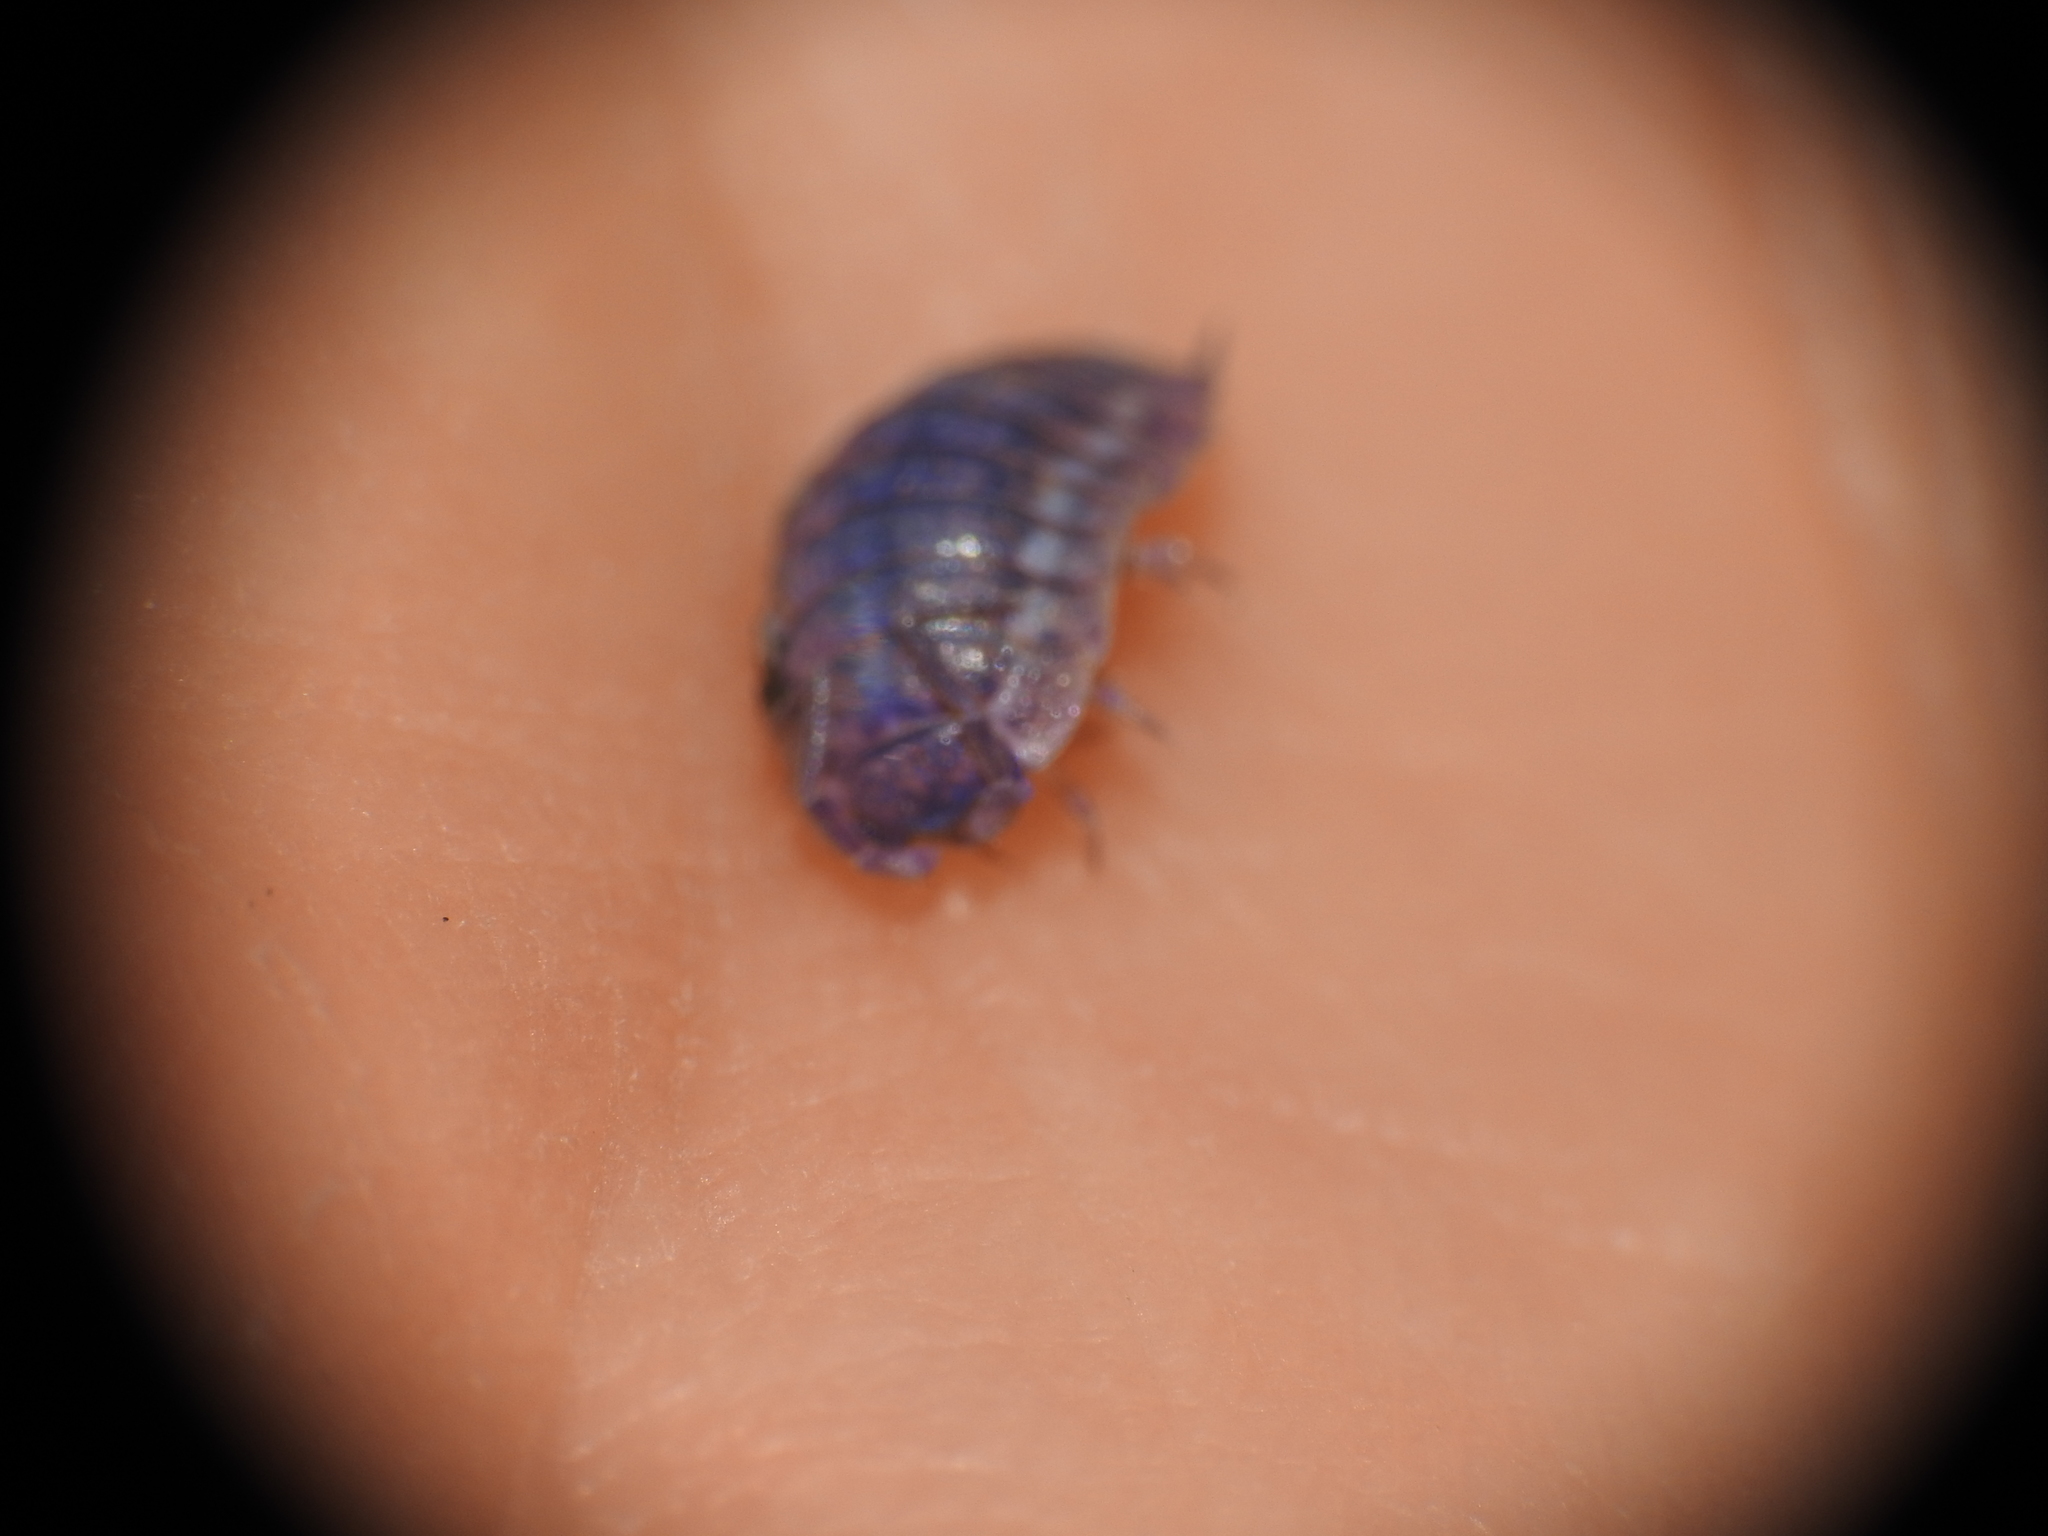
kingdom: Viruses
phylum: Nucleocytoviricota
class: Megaviricetes
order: Pimascovirales
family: Iridoviridae
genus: Iridovirus
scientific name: Iridovirus Invertebrate iridescent virus 31
